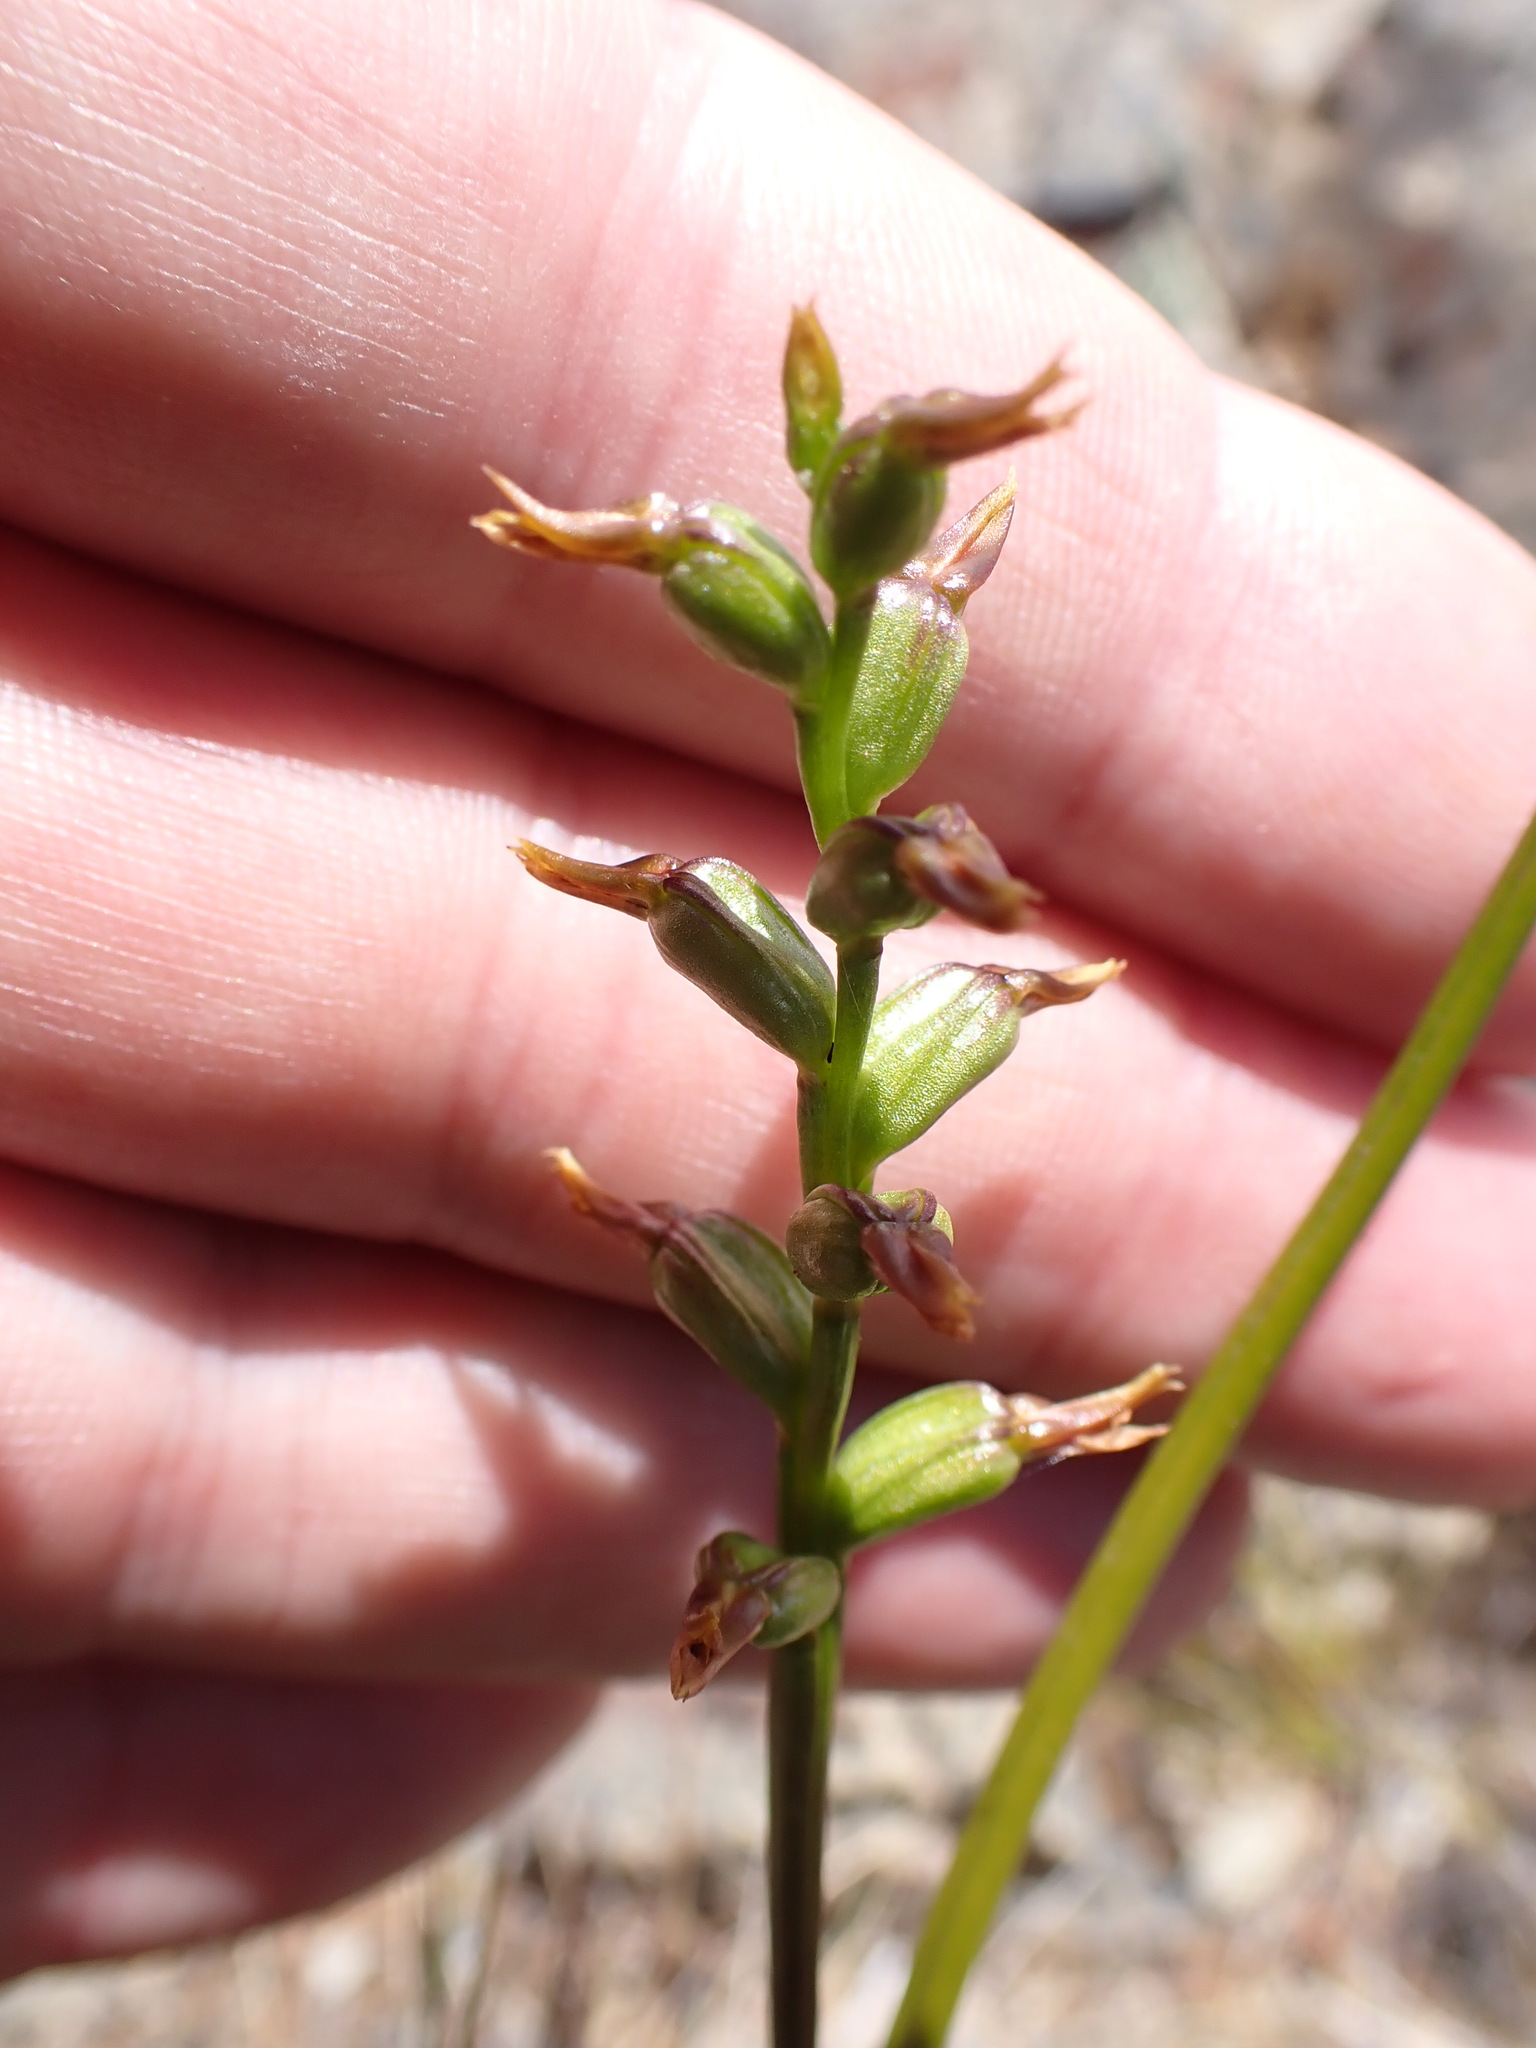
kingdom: Plantae
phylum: Tracheophyta
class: Liliopsida
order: Asparagales
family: Orchidaceae
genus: Prasophyllum
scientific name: Prasophyllum colensoi
